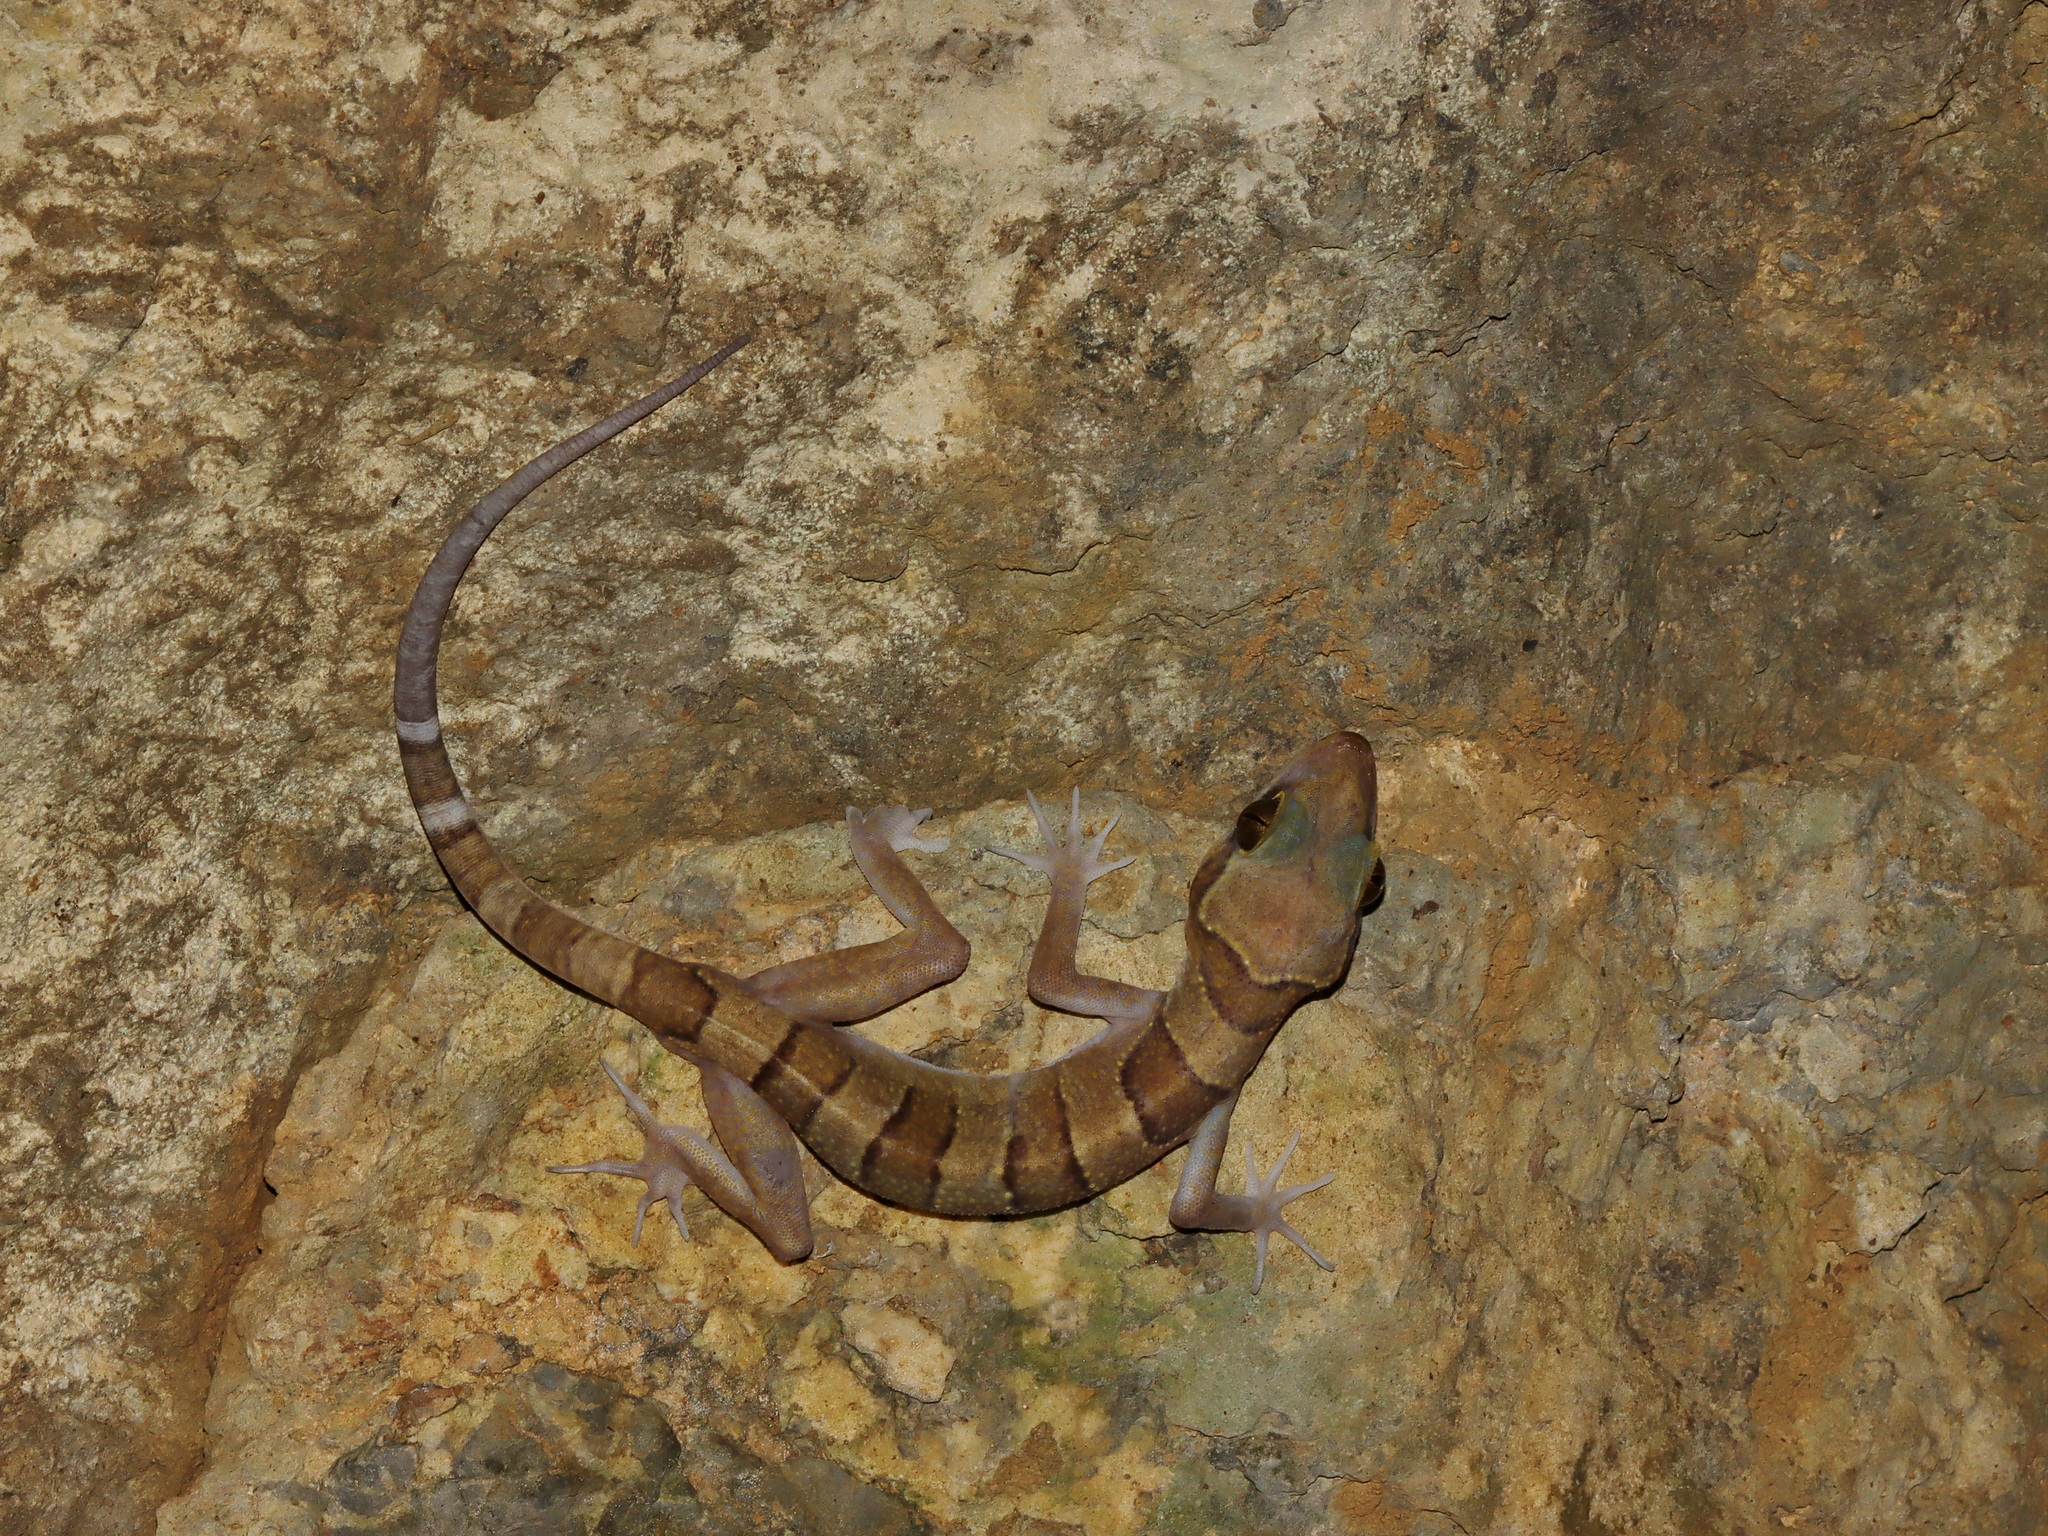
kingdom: Animalia
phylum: Chordata
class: Squamata
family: Gekkonidae
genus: Cyrtodactylus
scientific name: Cyrtodactylus stellatus
